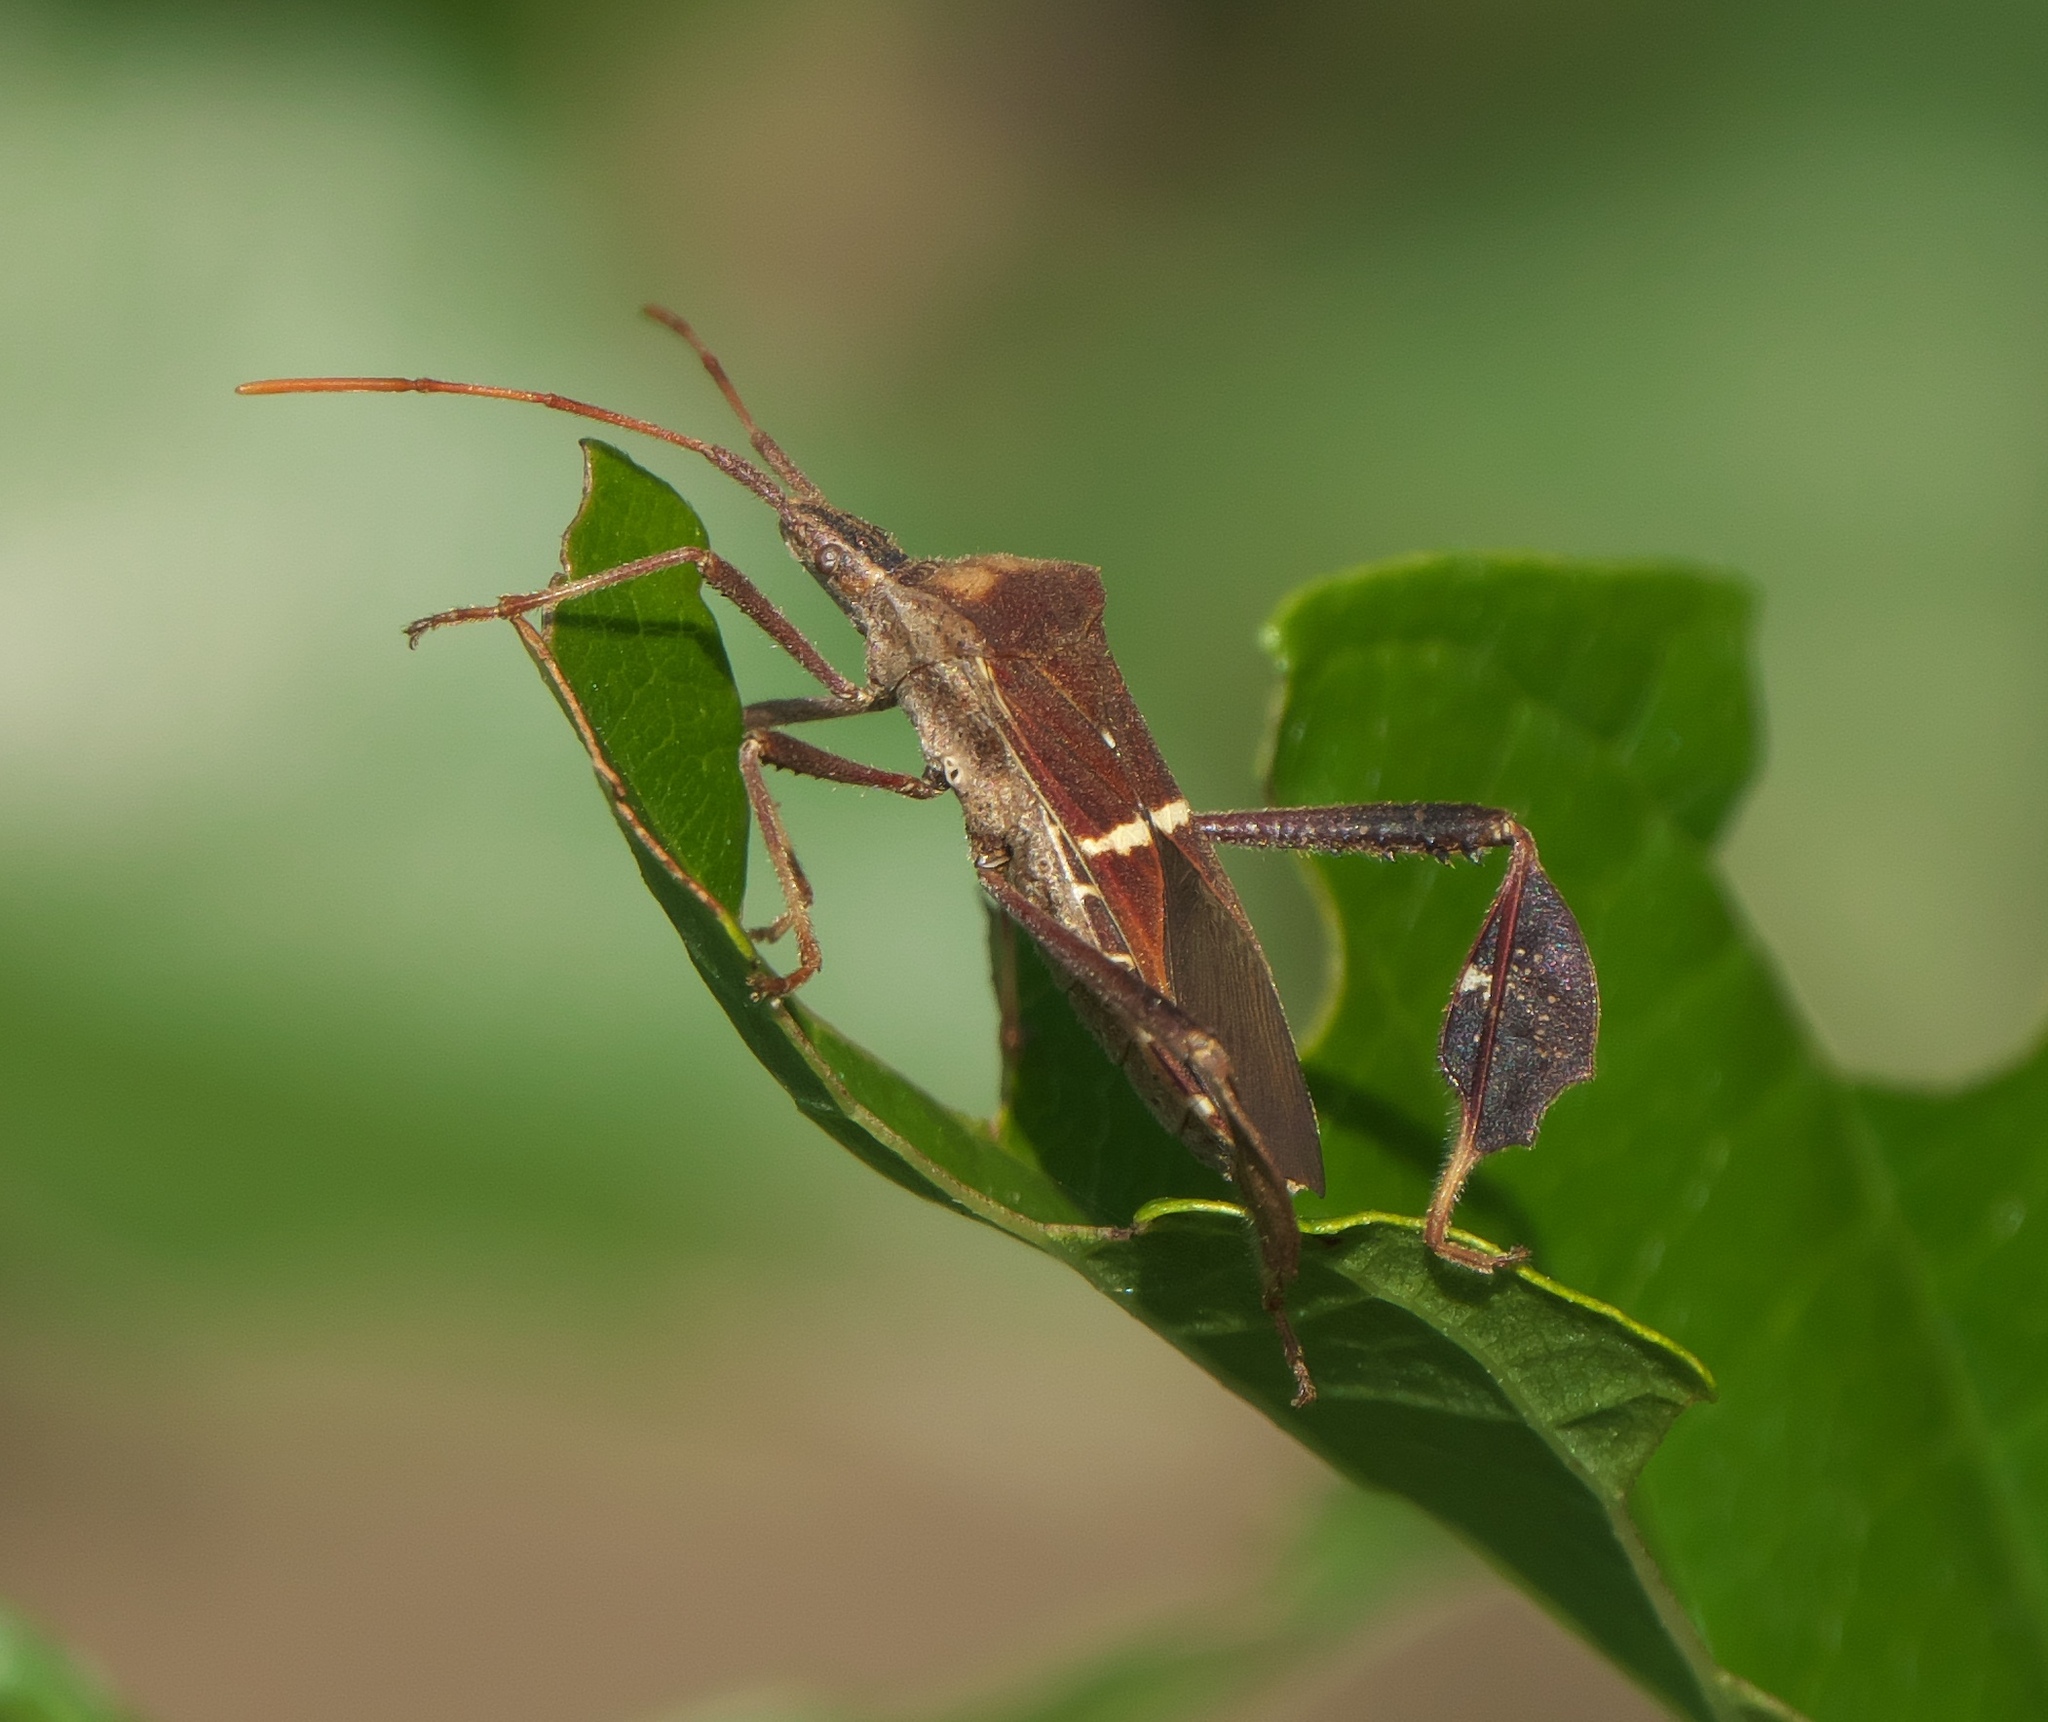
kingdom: Animalia
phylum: Arthropoda
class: Insecta
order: Hemiptera
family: Coreidae
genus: Leptoglossus
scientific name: Leptoglossus phyllopus
